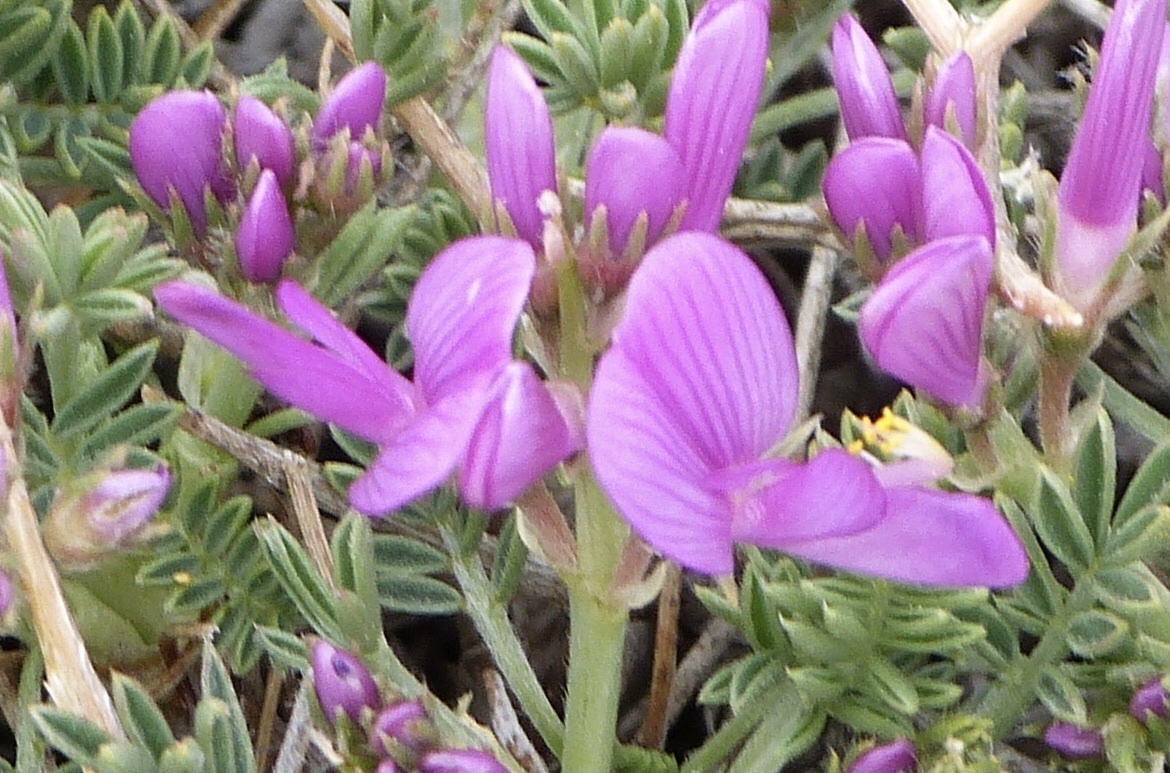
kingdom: Plantae
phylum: Tracheophyta
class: Magnoliopsida
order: Fabales
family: Fabaceae
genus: Onobrychis
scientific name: Onobrychis cornuta
